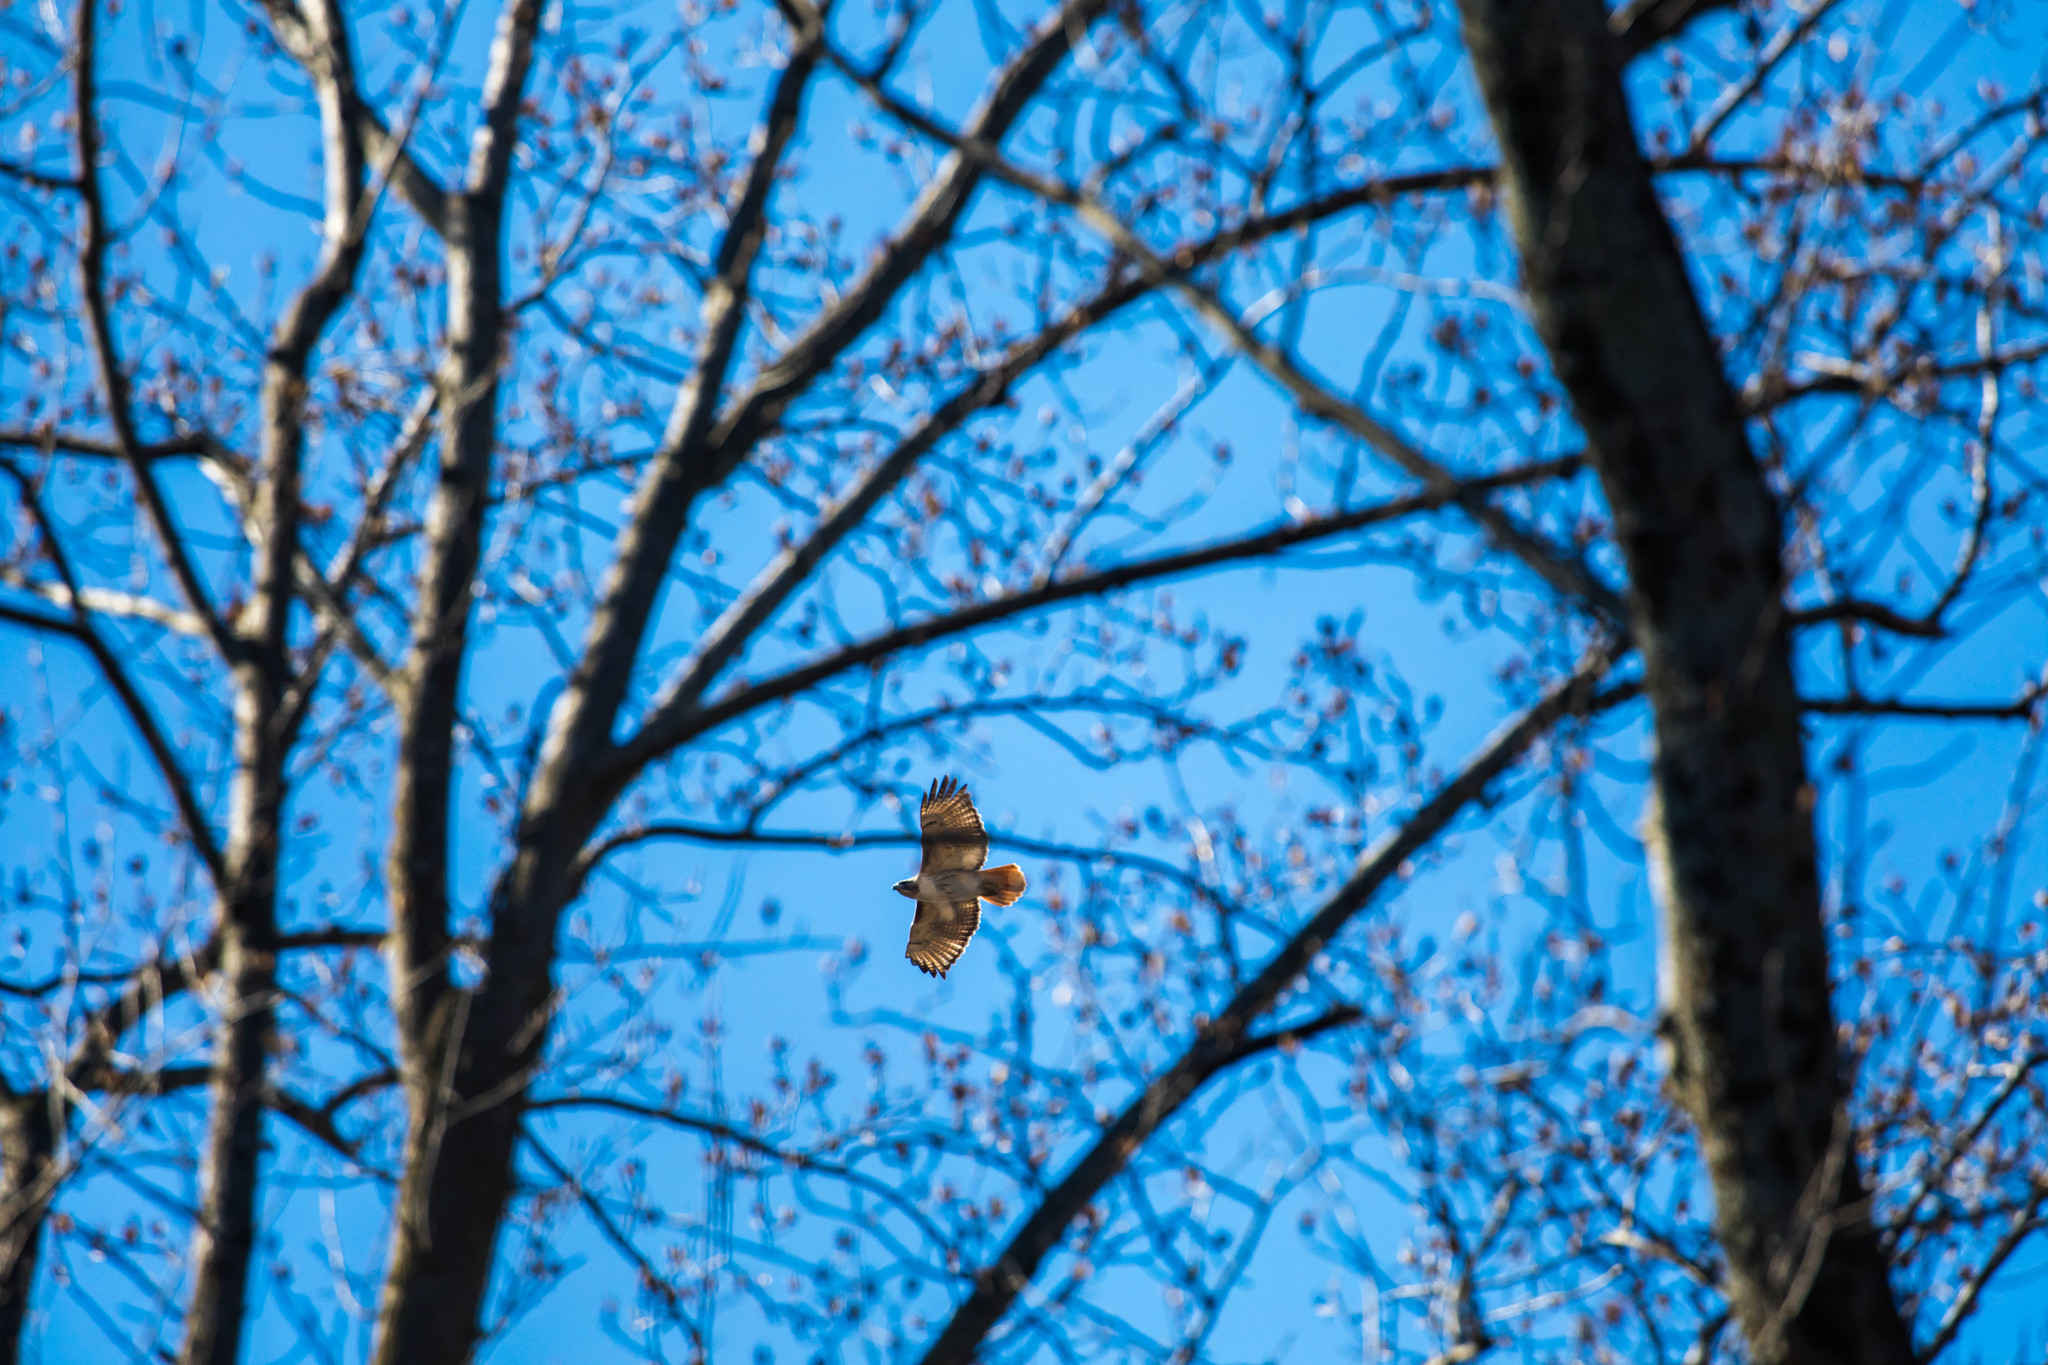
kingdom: Animalia
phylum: Chordata
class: Aves
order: Accipitriformes
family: Accipitridae
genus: Buteo
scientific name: Buteo jamaicensis
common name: Red-tailed hawk
